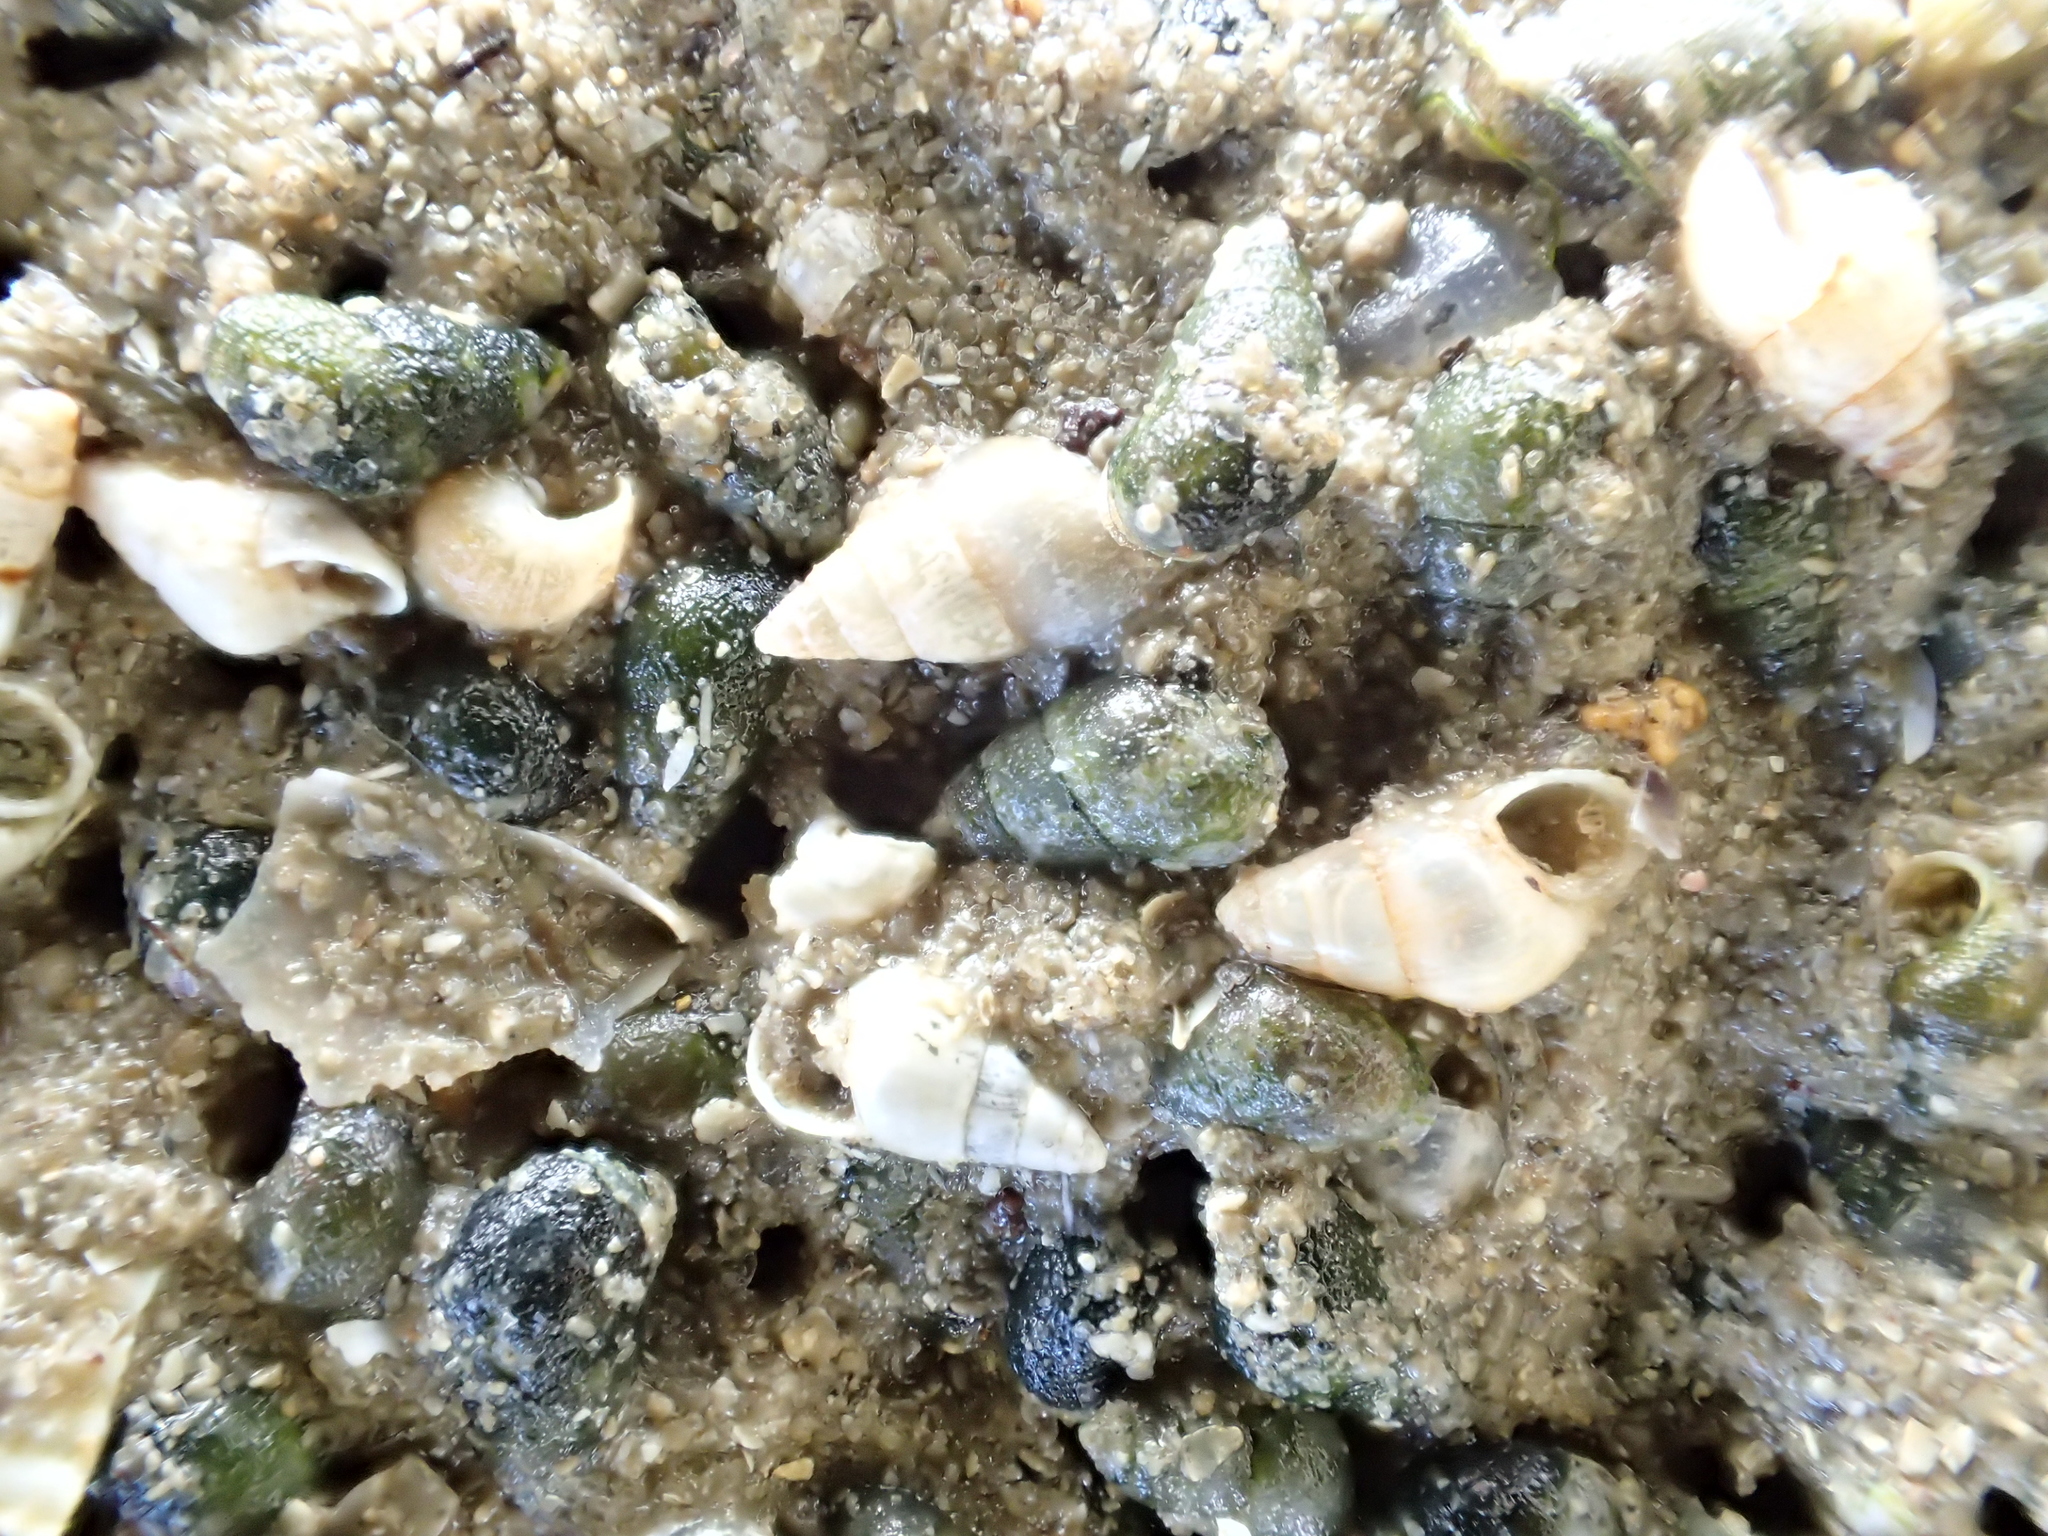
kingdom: Animalia
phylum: Mollusca
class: Gastropoda
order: Littorinimorpha
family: Hydrobiidae
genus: Peringia
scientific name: Peringia ulvae
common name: Laver spire shell
